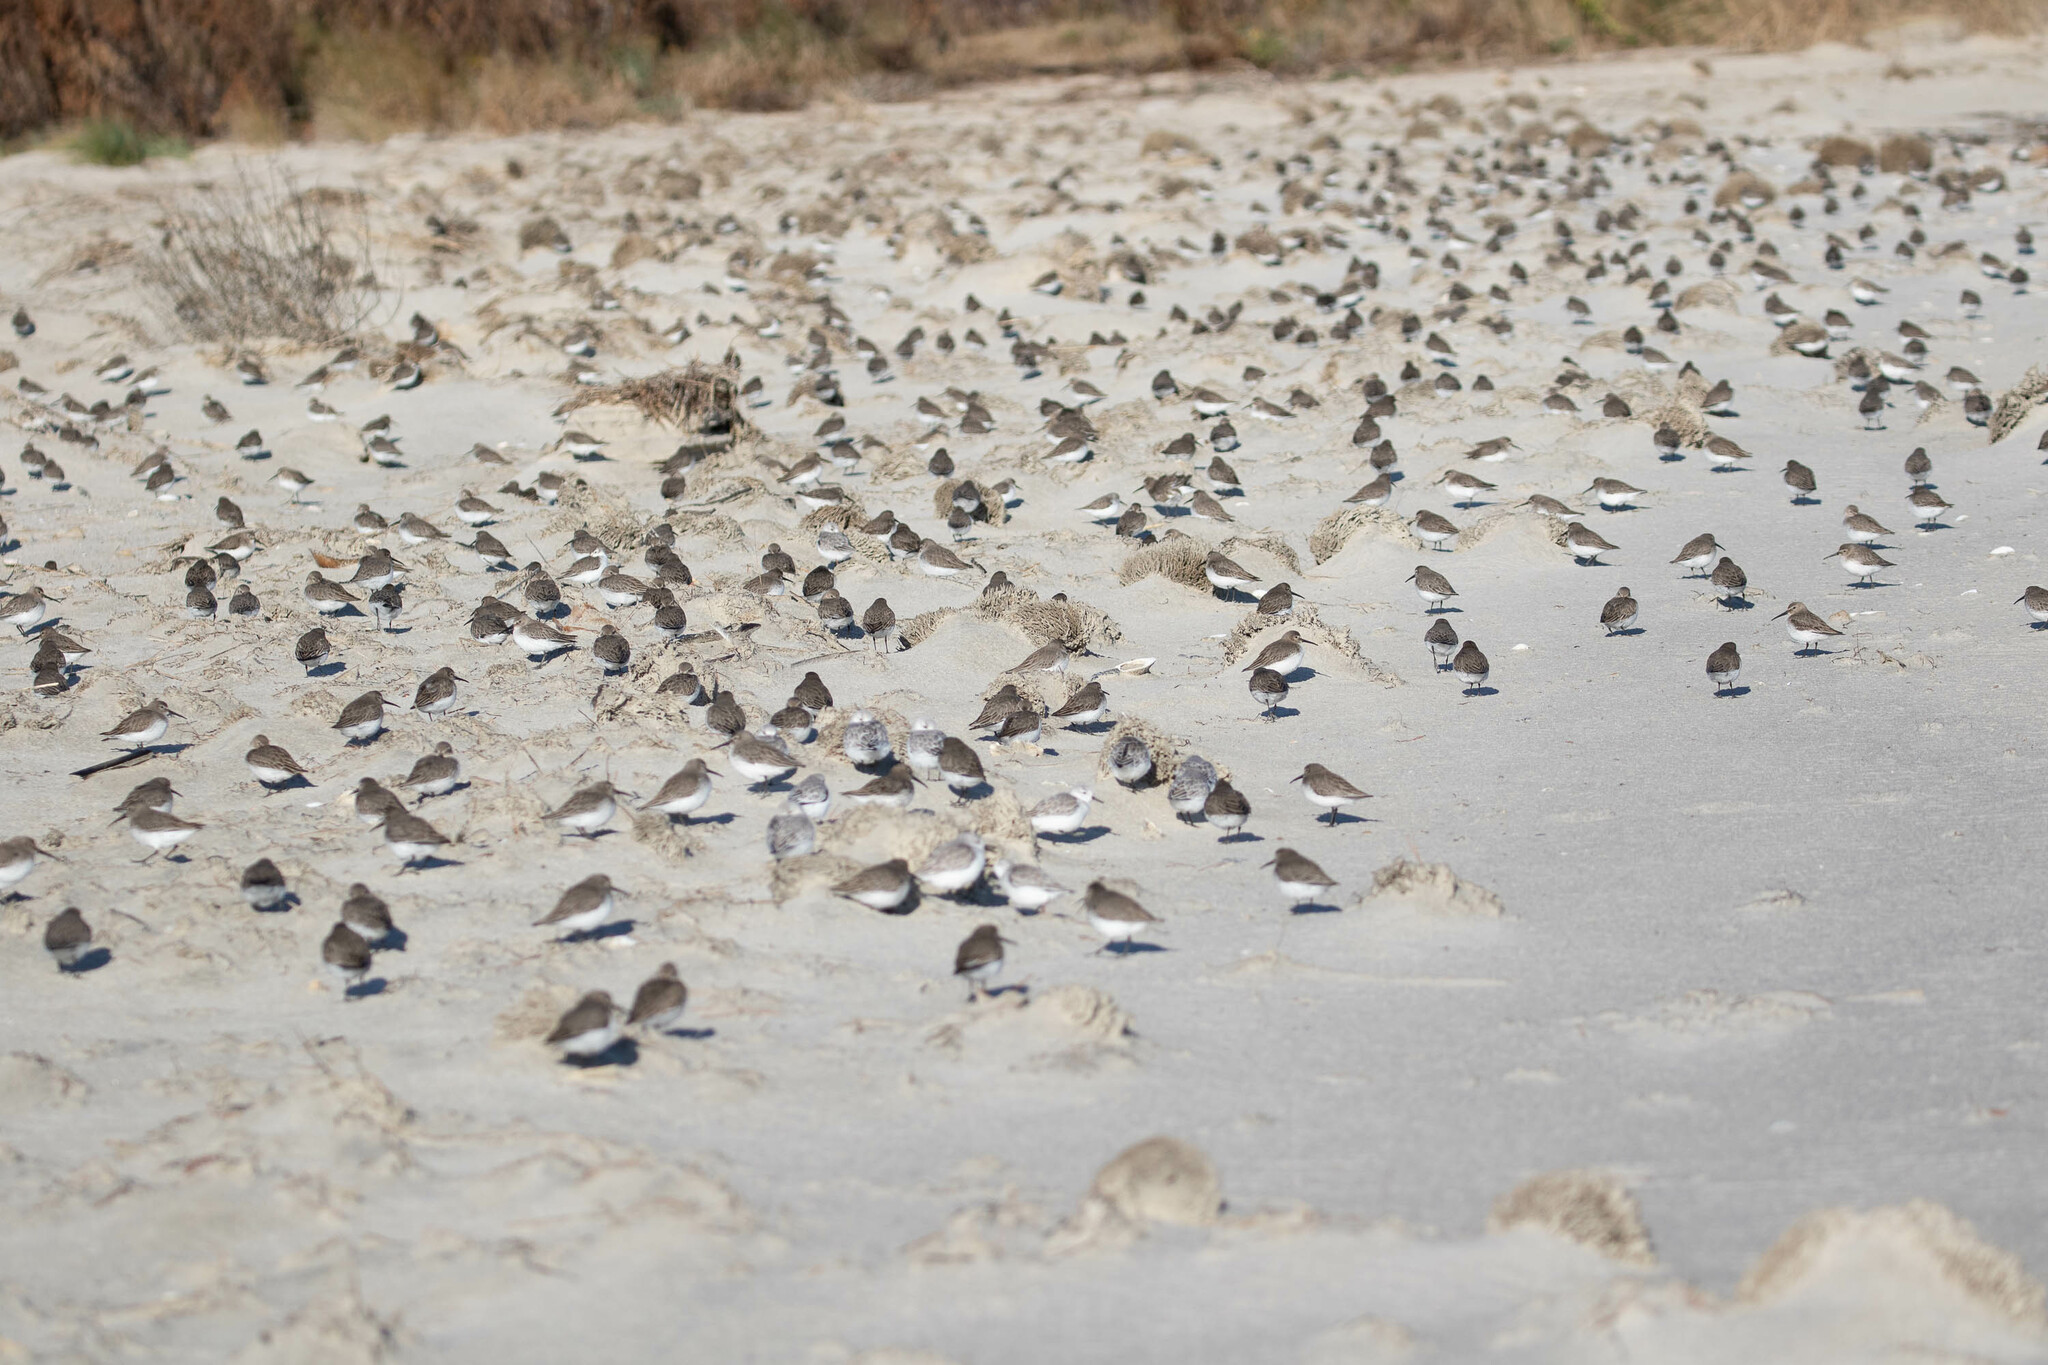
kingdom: Animalia
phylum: Chordata
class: Aves
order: Charadriiformes
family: Scolopacidae
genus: Calidris
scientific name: Calidris alpina
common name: Dunlin
